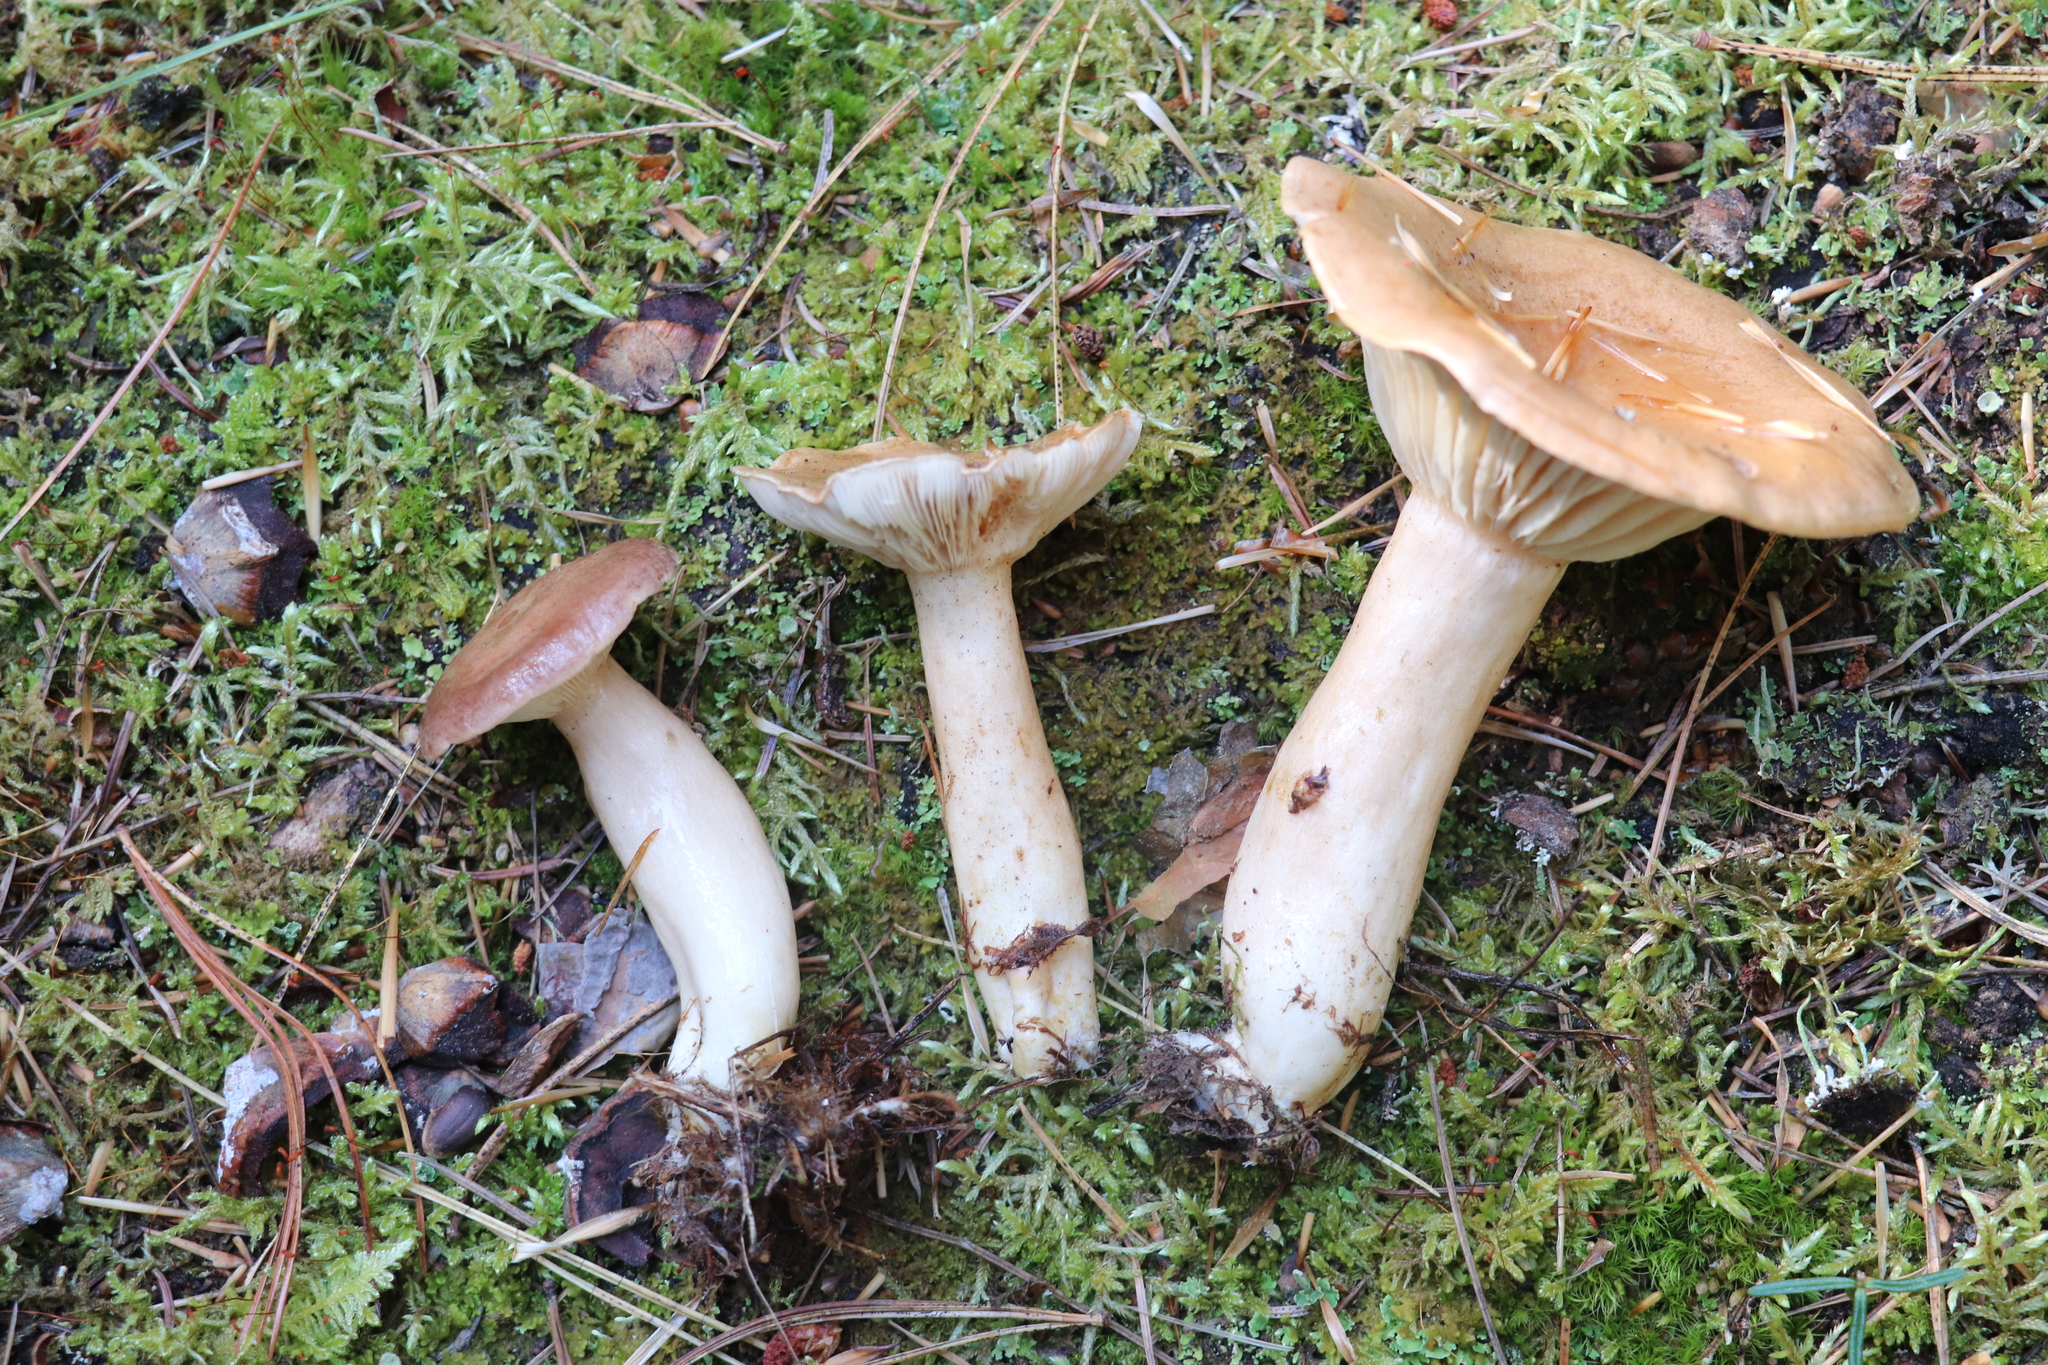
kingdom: Fungi
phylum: Basidiomycota
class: Agaricomycetes
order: Russulales
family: Russulaceae
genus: Lactarius
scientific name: Lactarius trivialis
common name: Tacked milkcap
